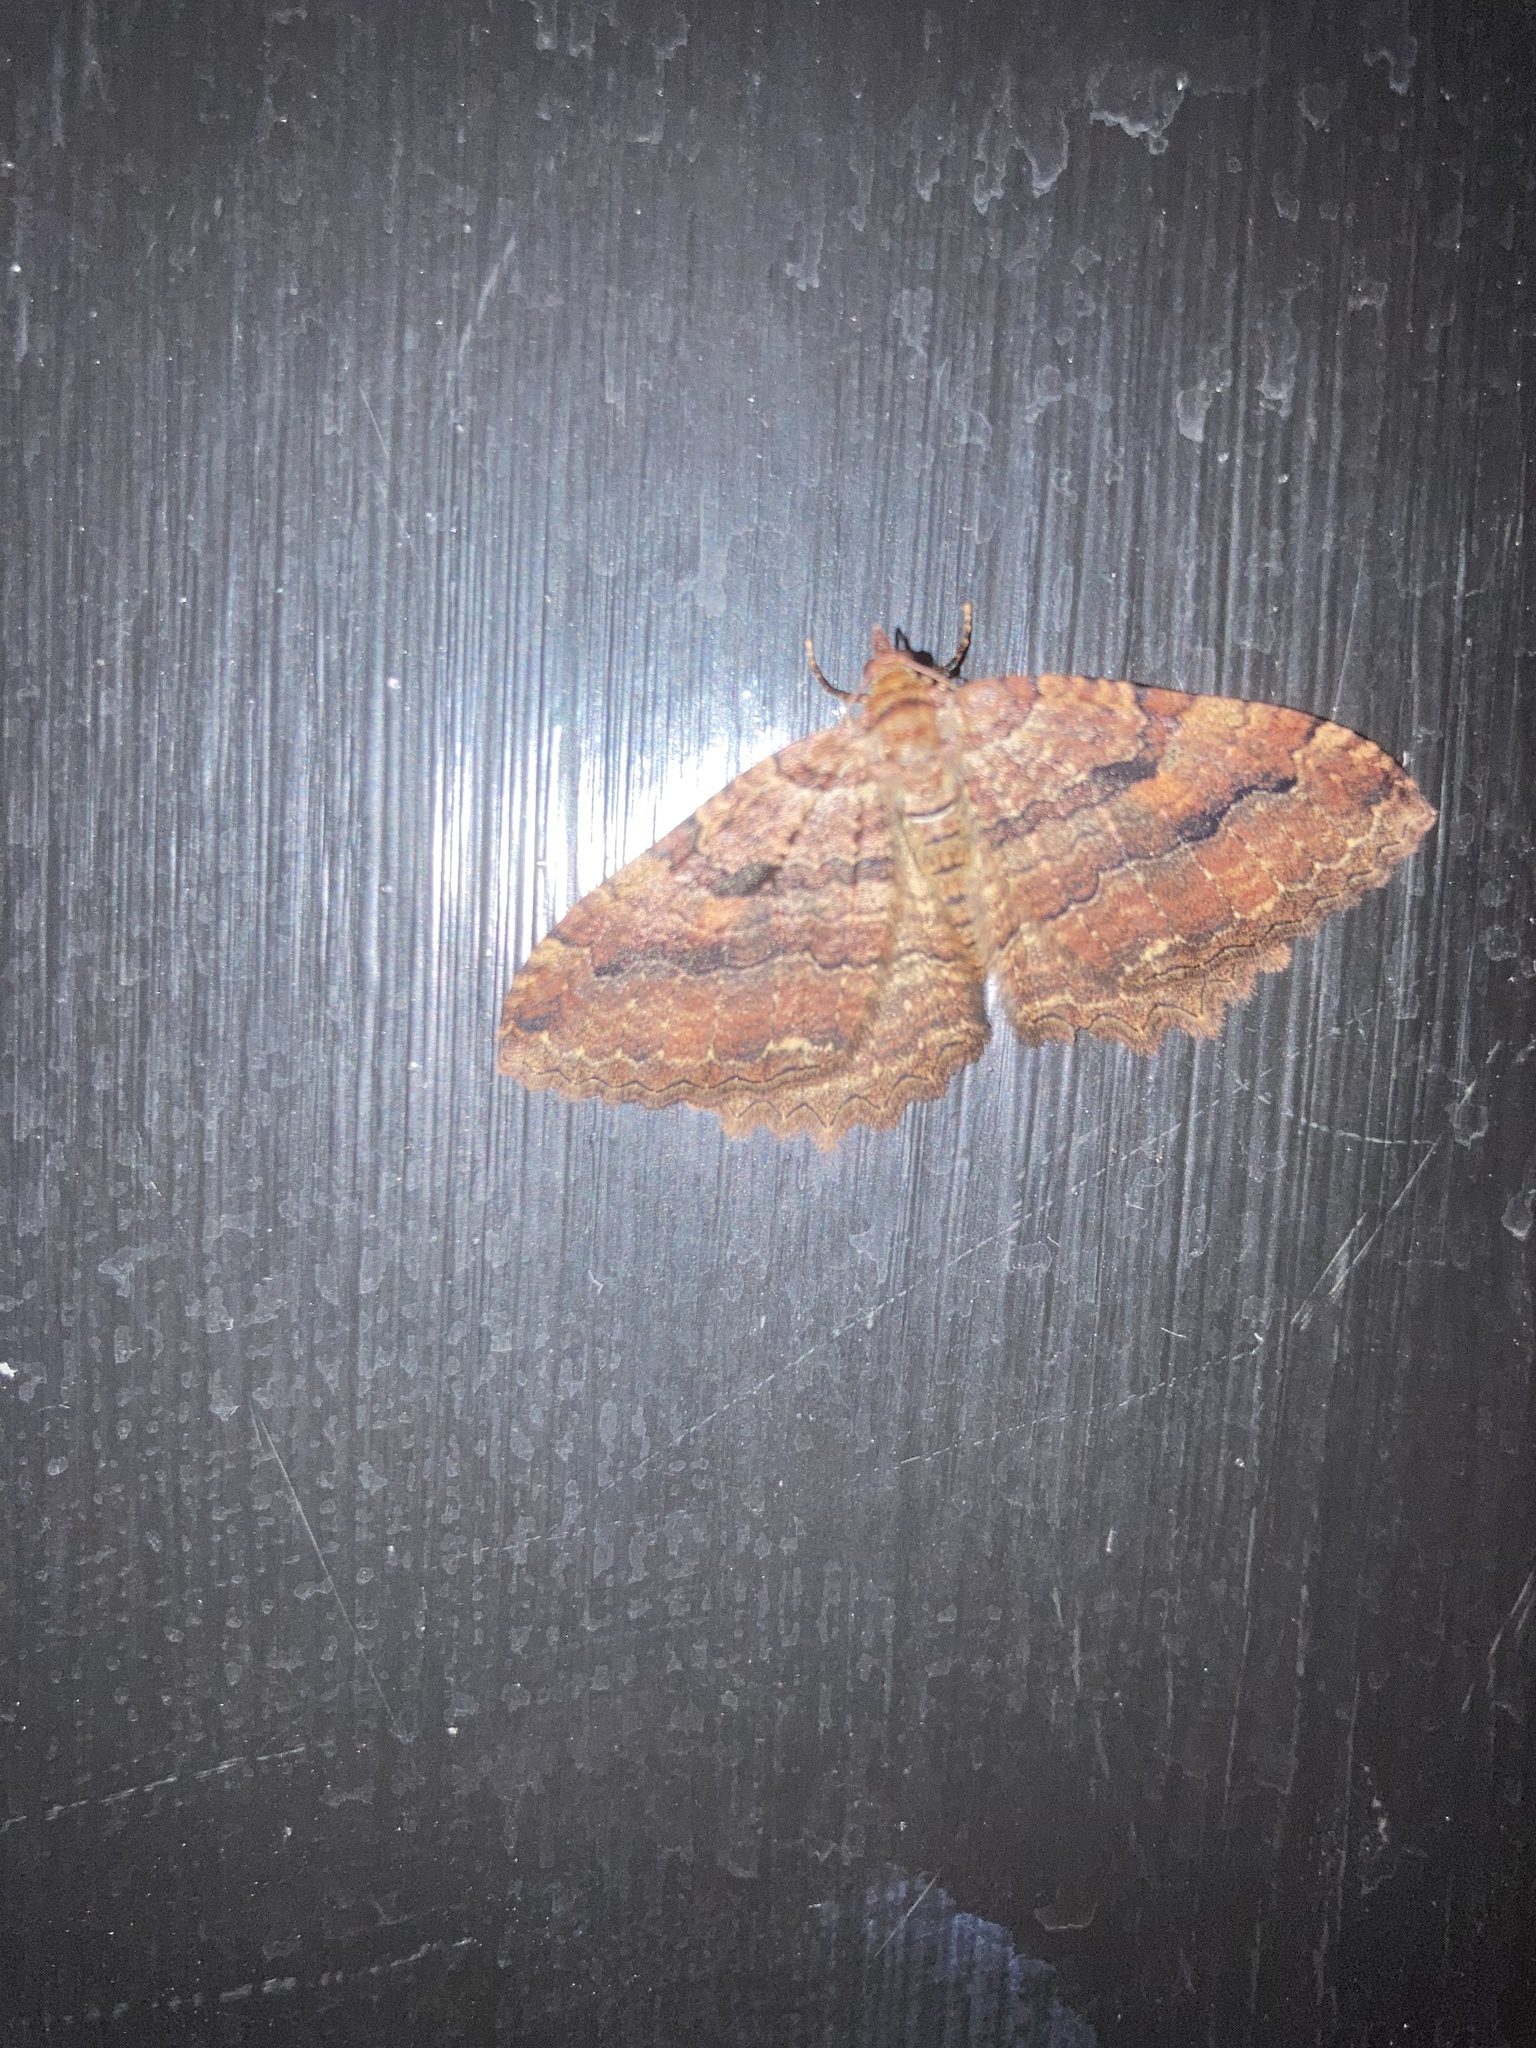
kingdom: Animalia
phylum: Arthropoda
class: Insecta
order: Lepidoptera
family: Geometridae
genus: Triphosa
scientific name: Triphosa haesitata
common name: Tissue moth
